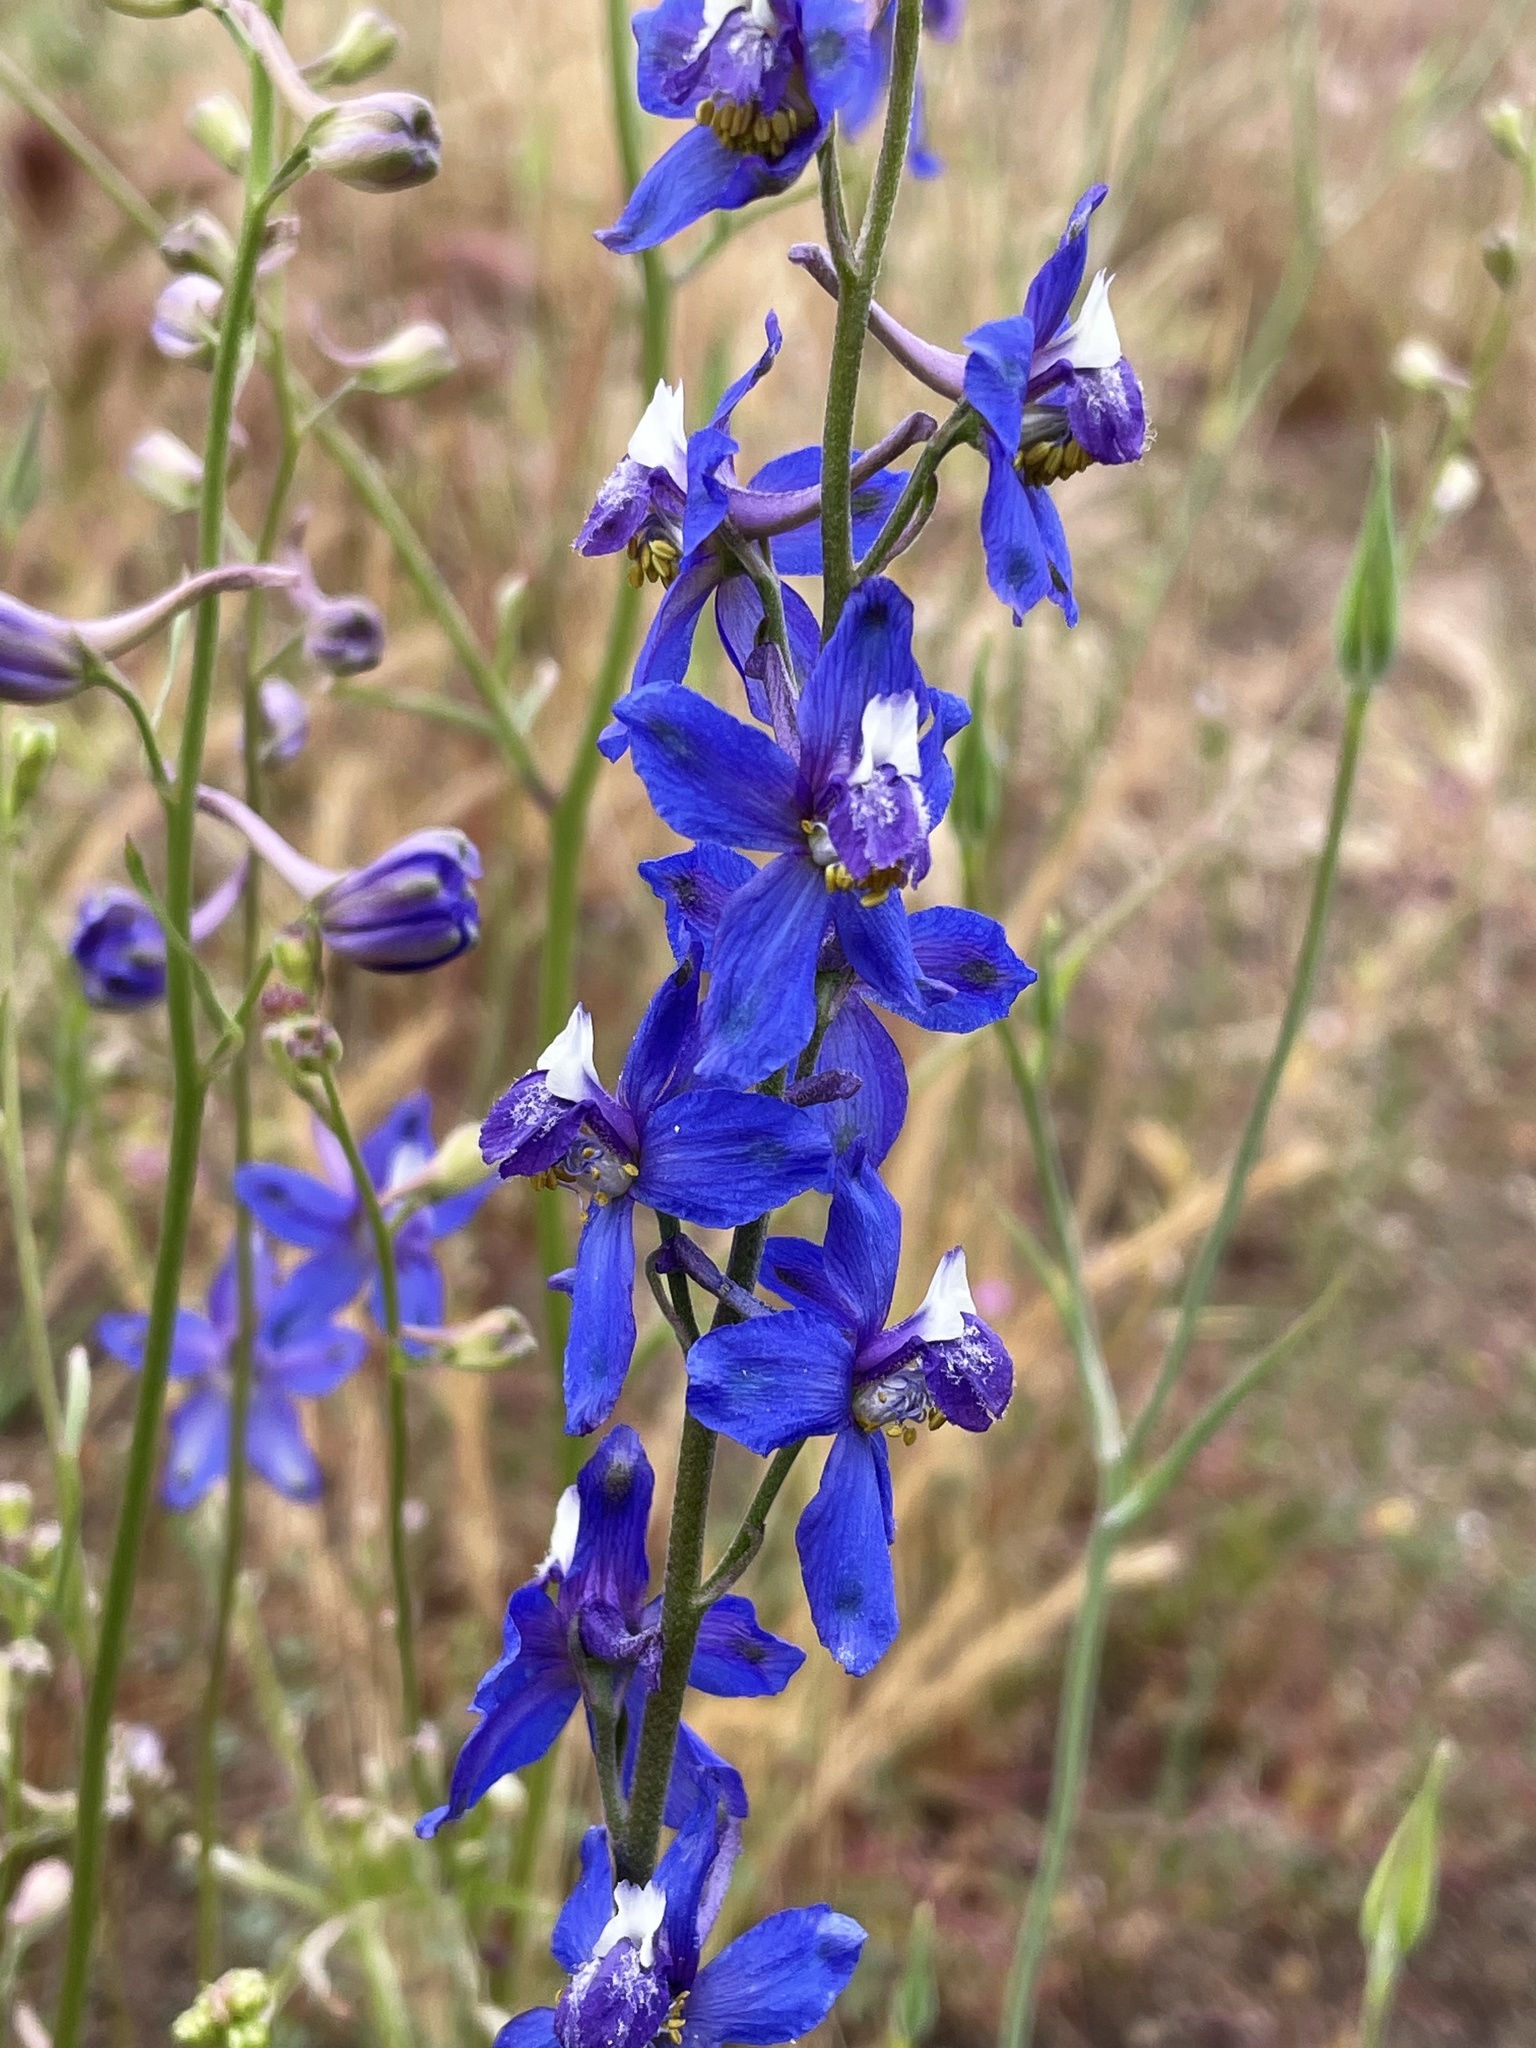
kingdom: Plantae
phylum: Tracheophyta
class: Magnoliopsida
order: Ranunculales
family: Ranunculaceae
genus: Delphinium
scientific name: Delphinium parryi
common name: Parry's larkspur
